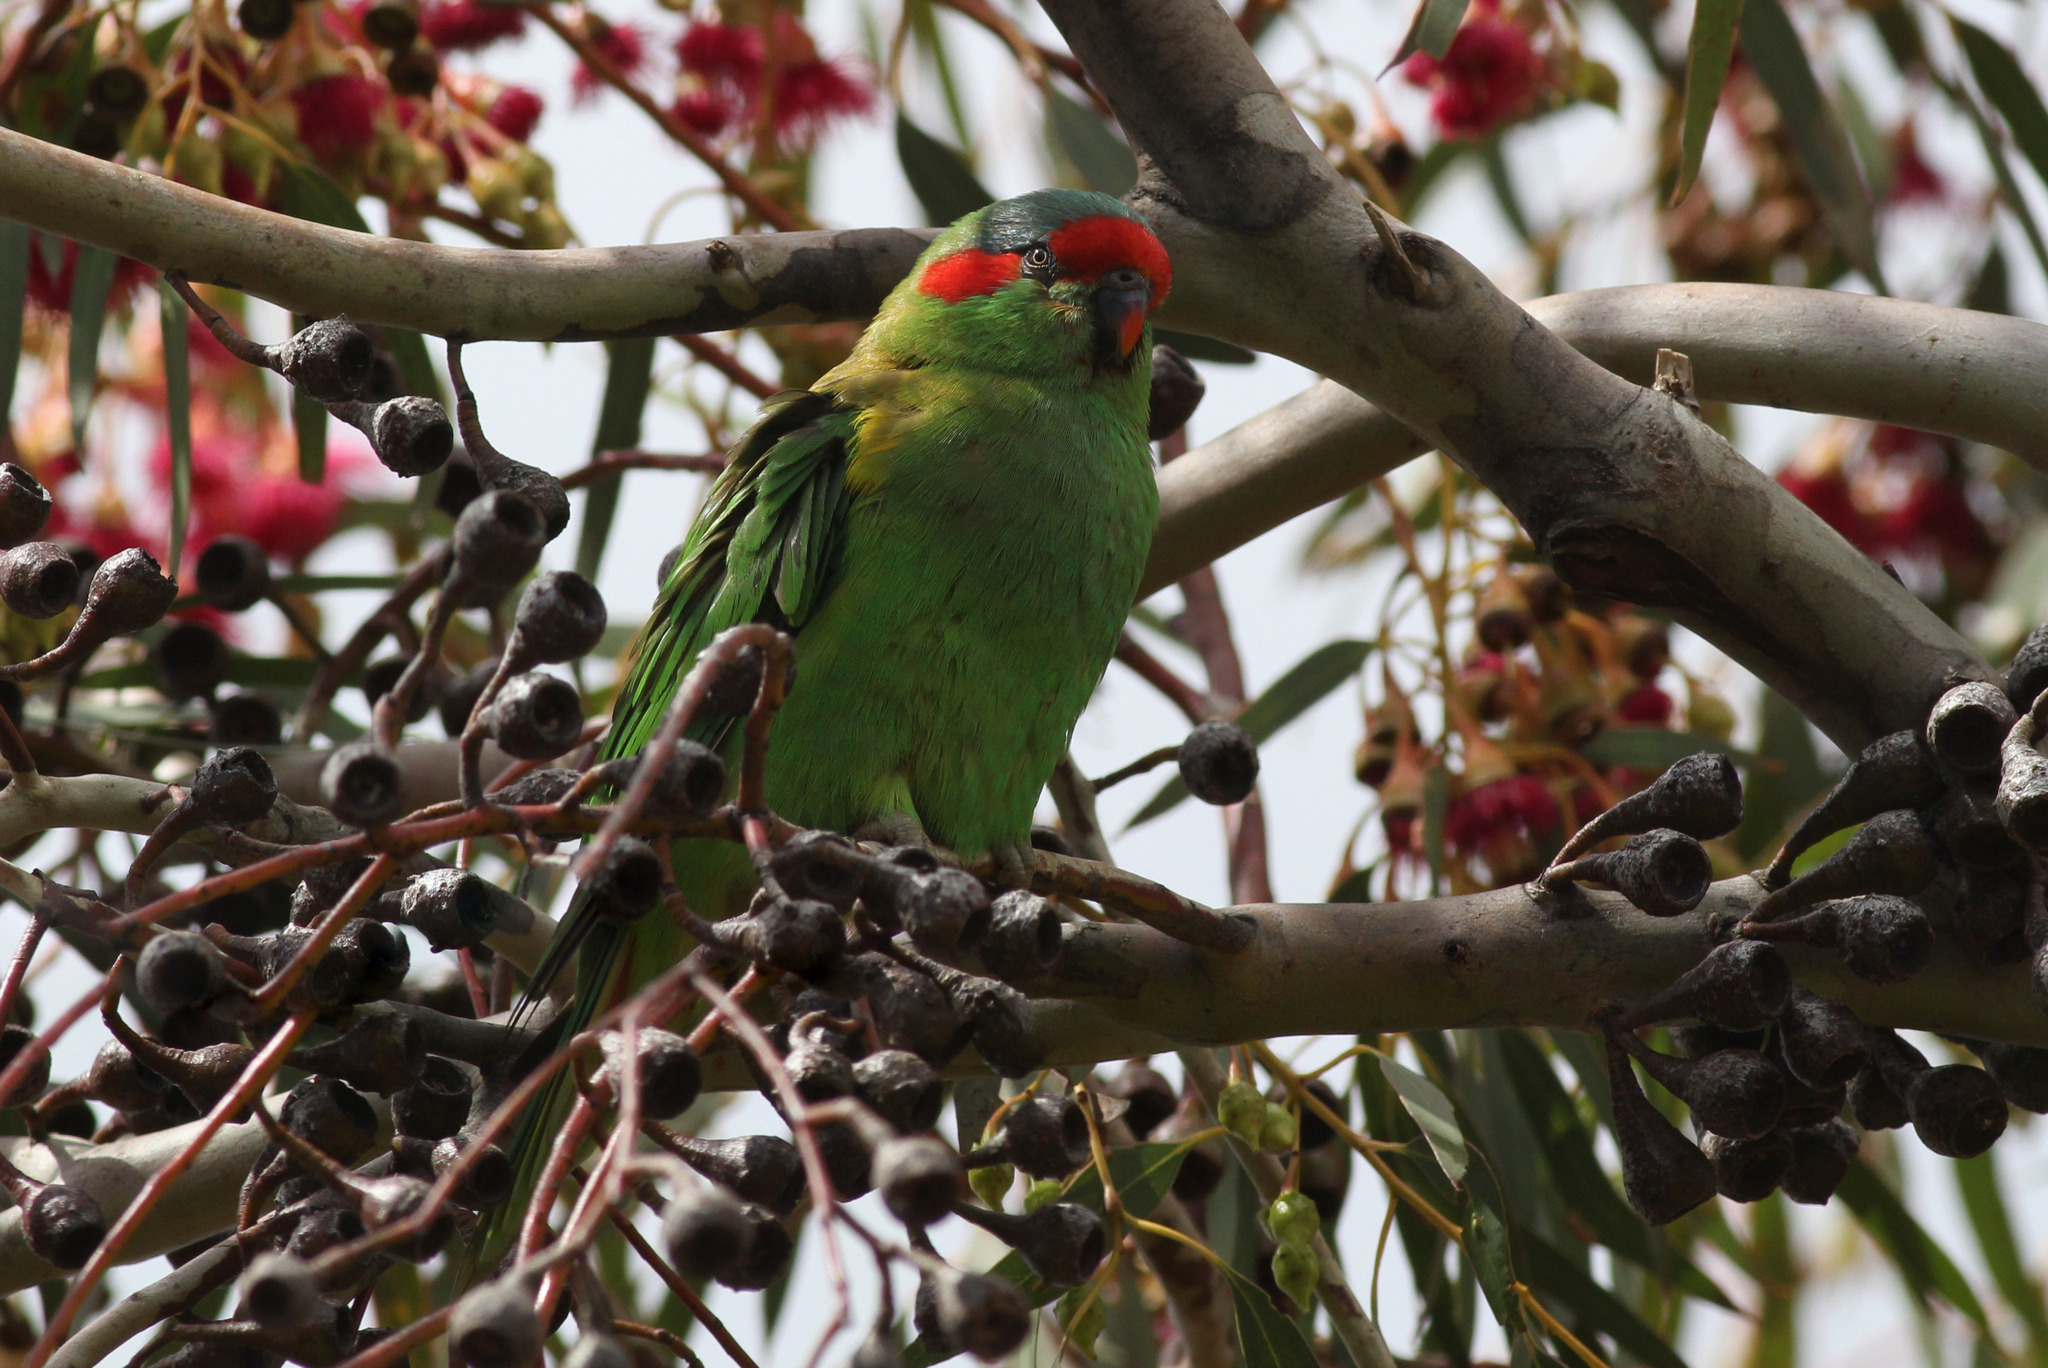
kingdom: Animalia
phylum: Chordata
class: Aves
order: Psittaciformes
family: Psittacidae
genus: Glossopsitta
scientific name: Glossopsitta concinna
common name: Musk lorikeet
